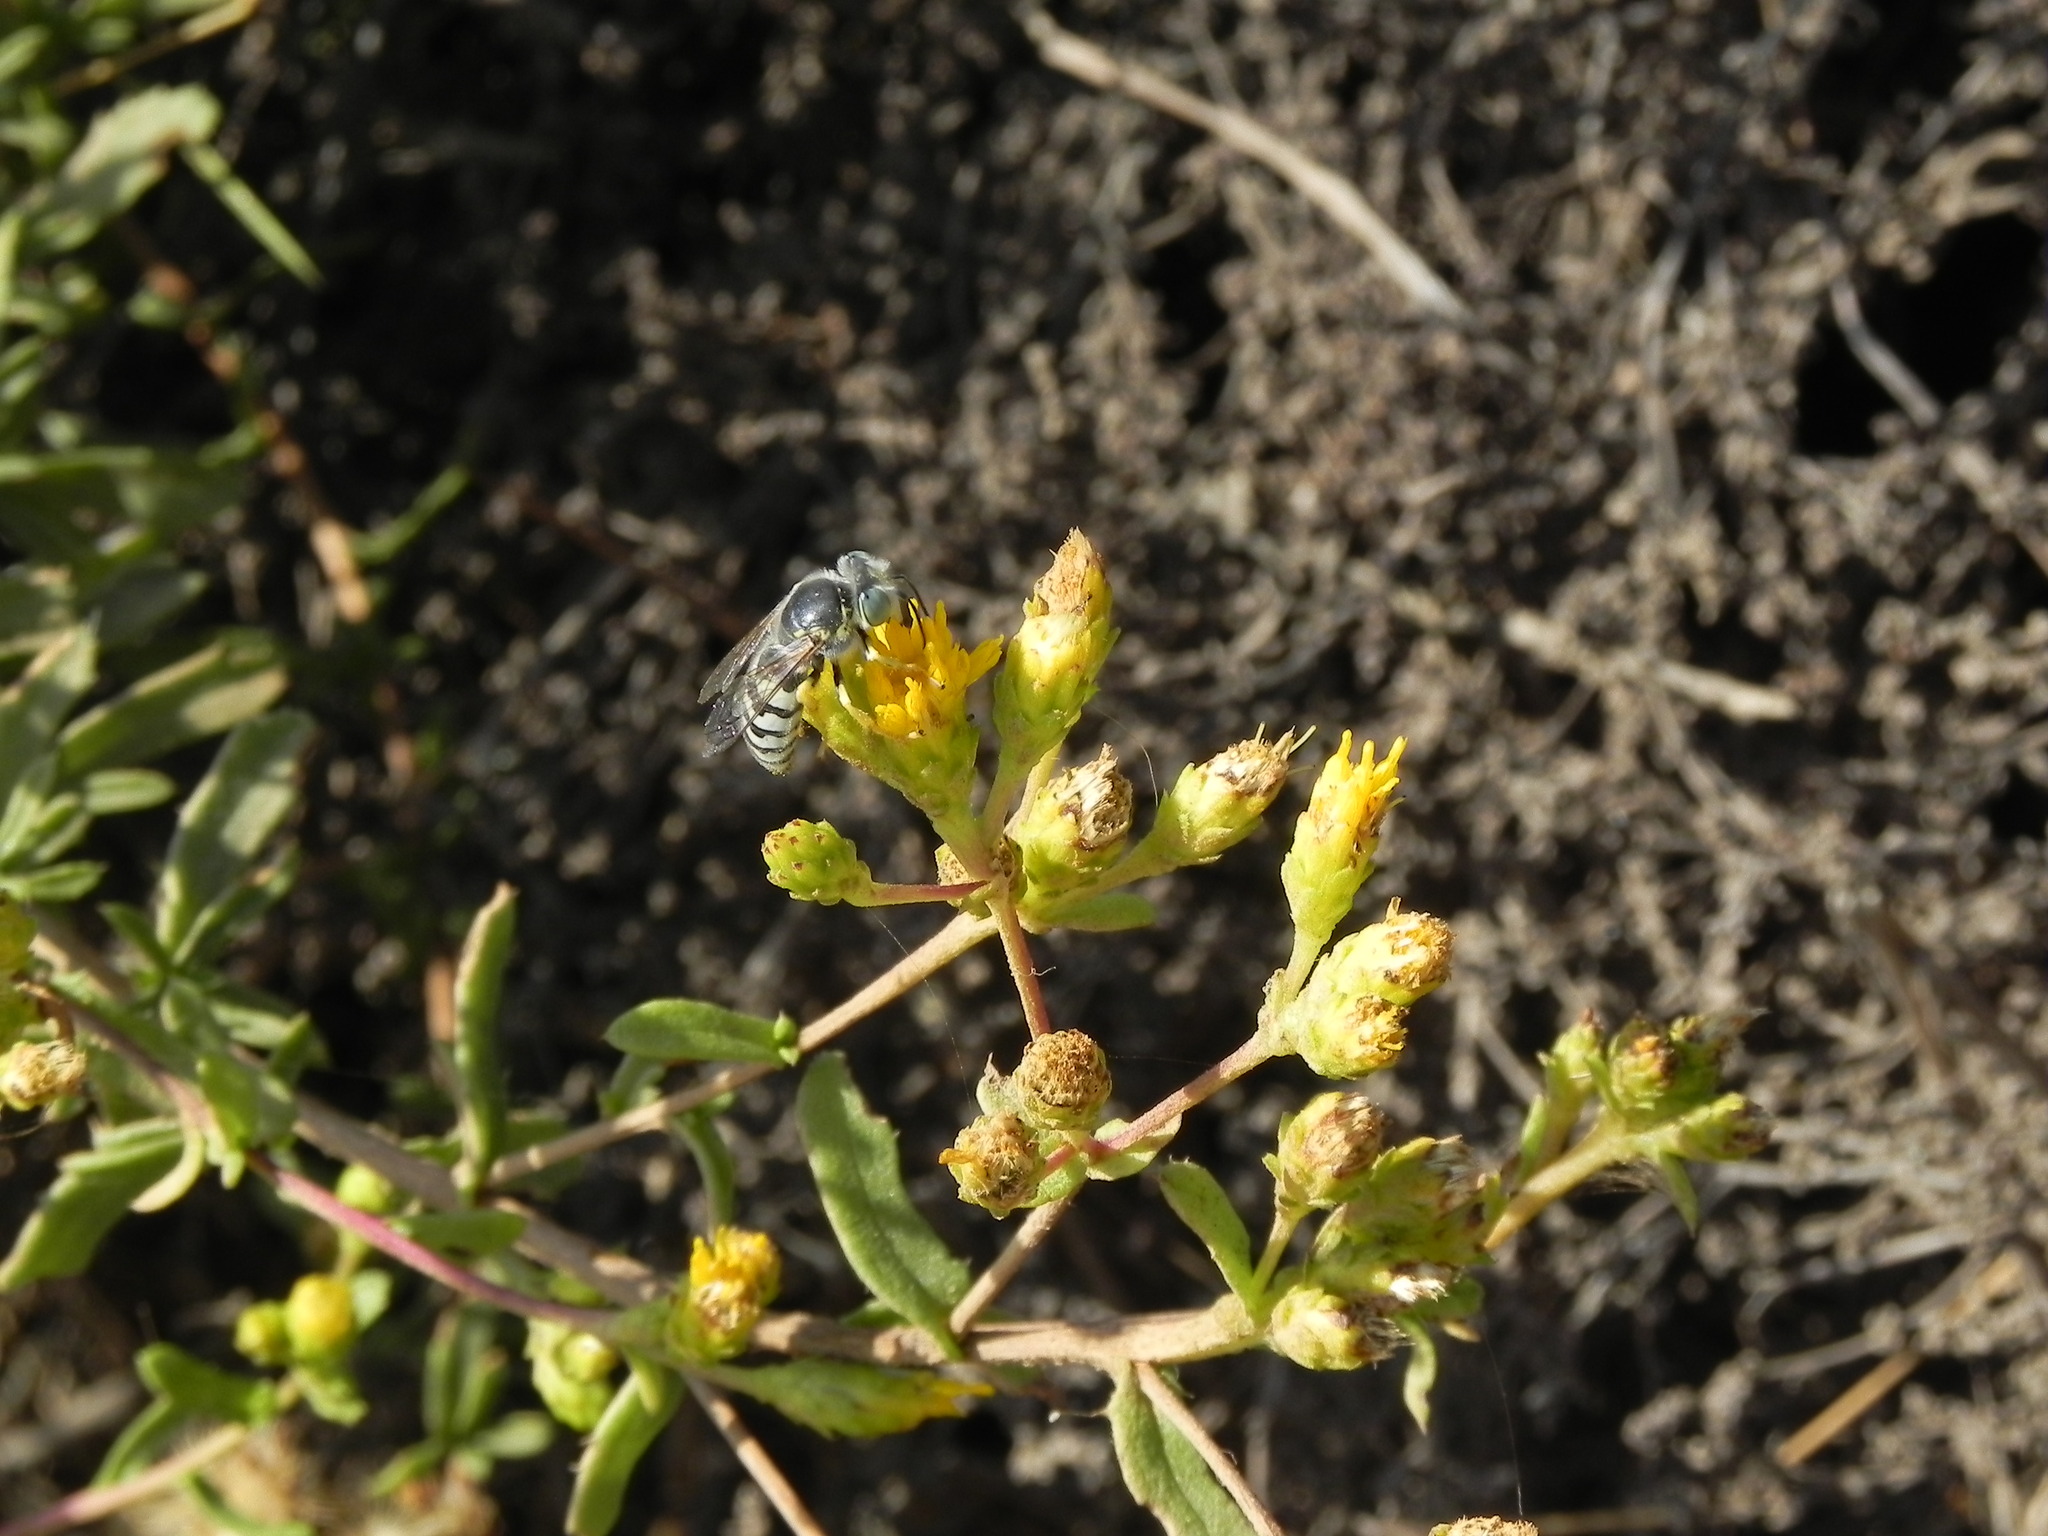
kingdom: Animalia
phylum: Arthropoda
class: Insecta
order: Hymenoptera
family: Crabronidae
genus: Bembix
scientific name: Bembix americana
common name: American sand wasp
